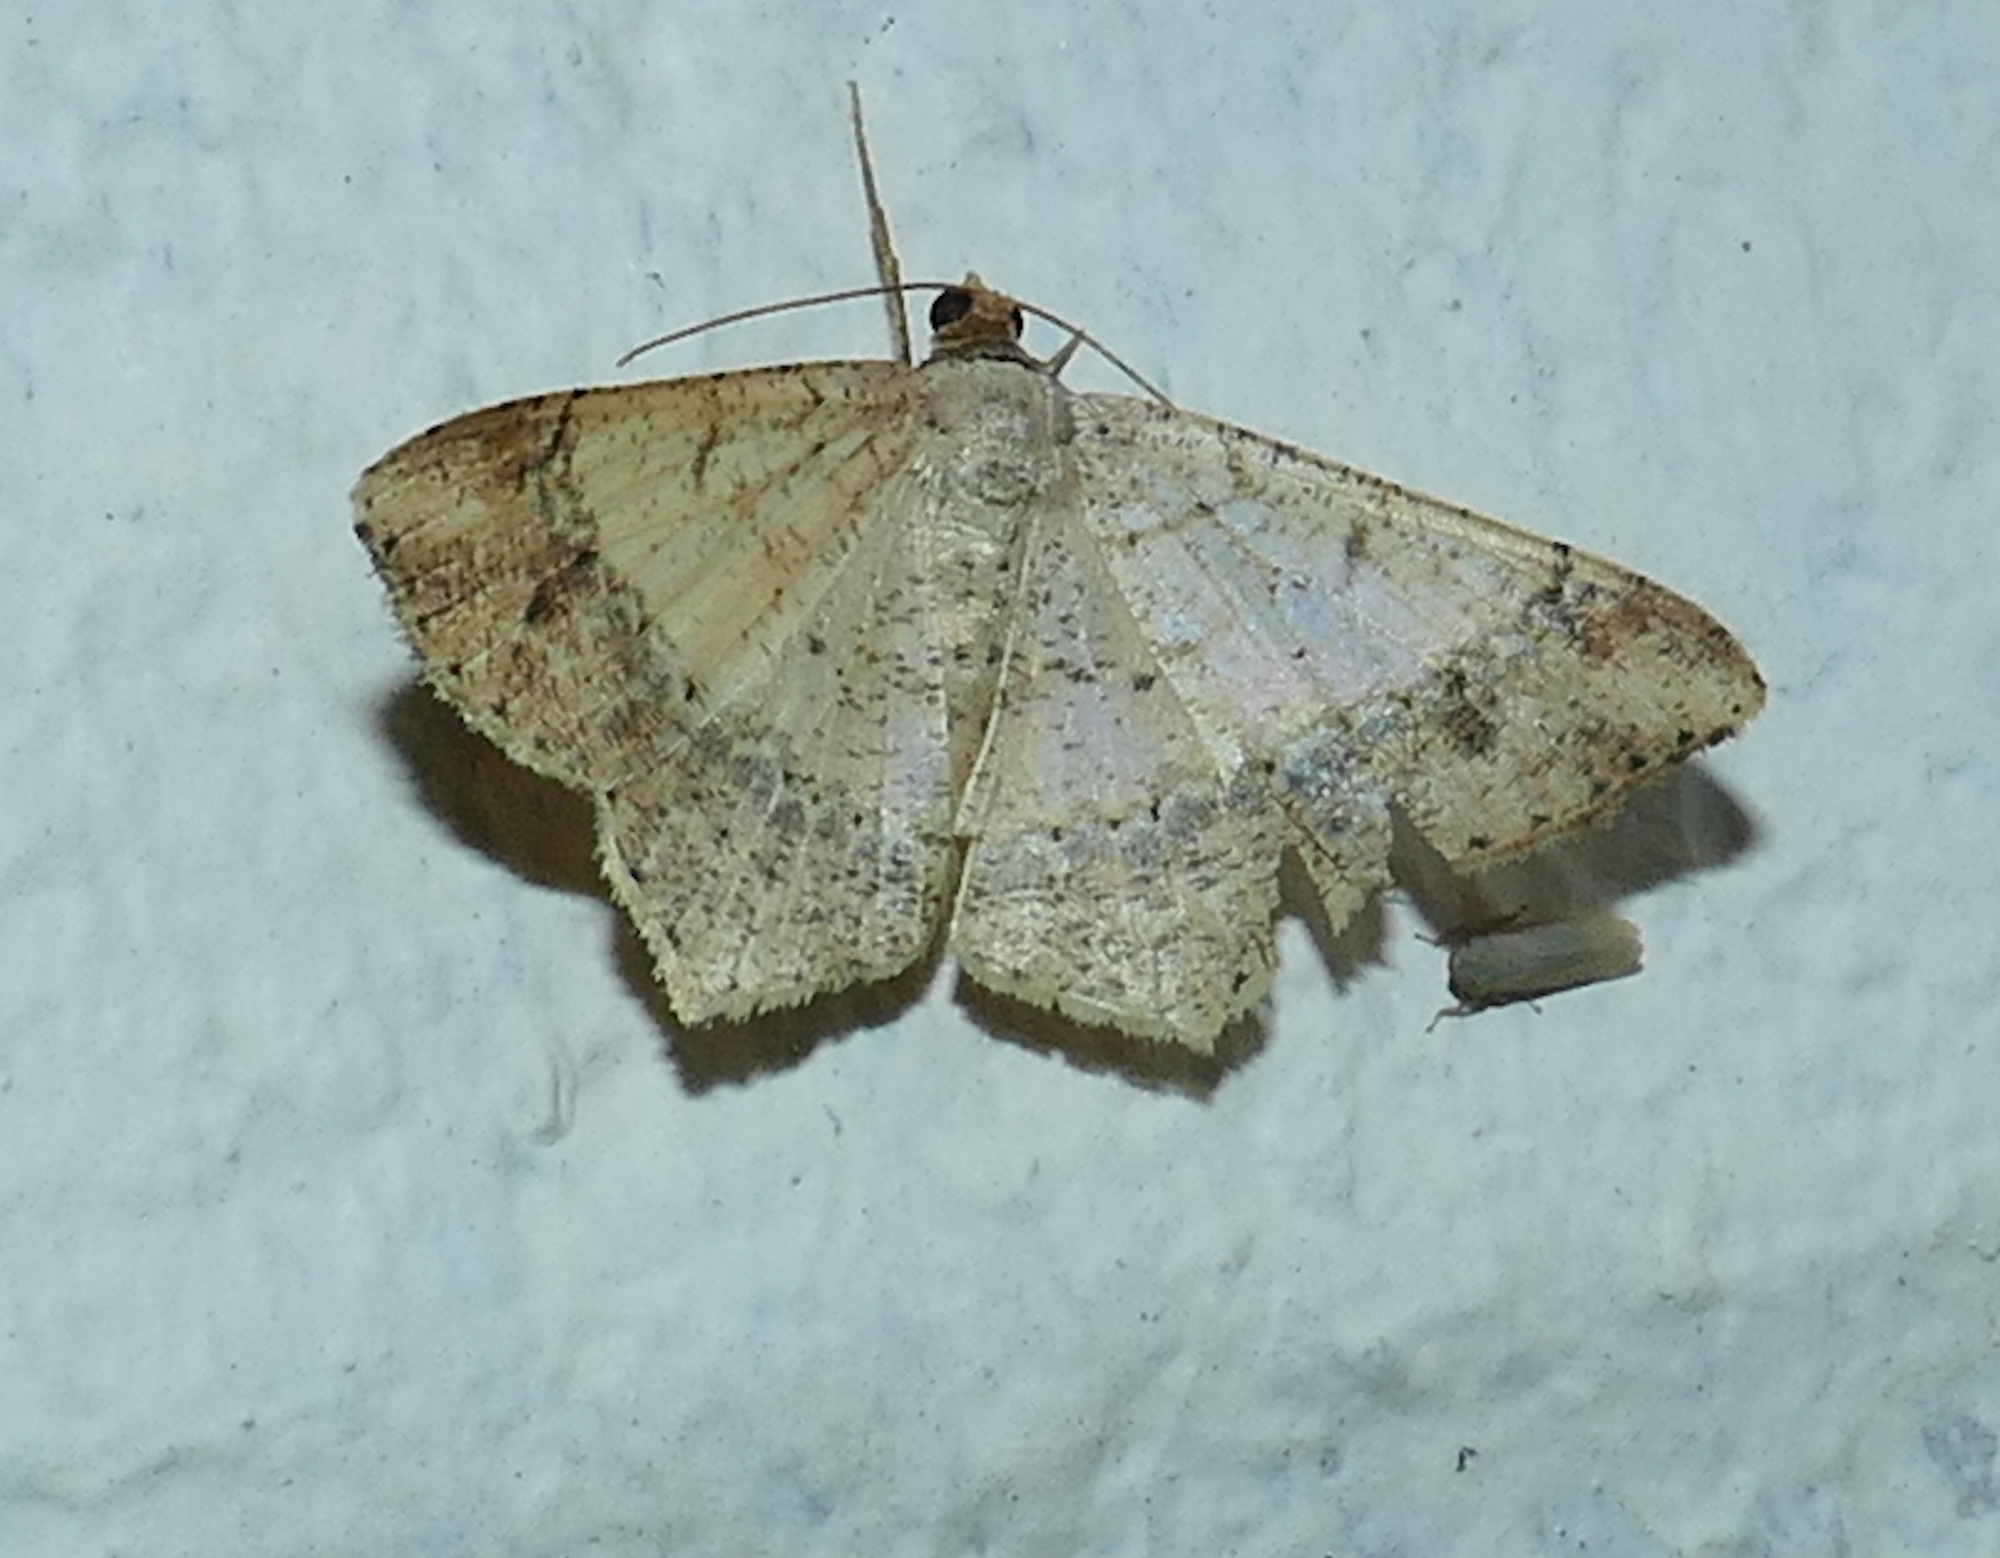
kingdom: Animalia
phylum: Arthropoda
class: Insecta
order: Lepidoptera
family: Geometridae
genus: Macaria
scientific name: Macaria abydata
